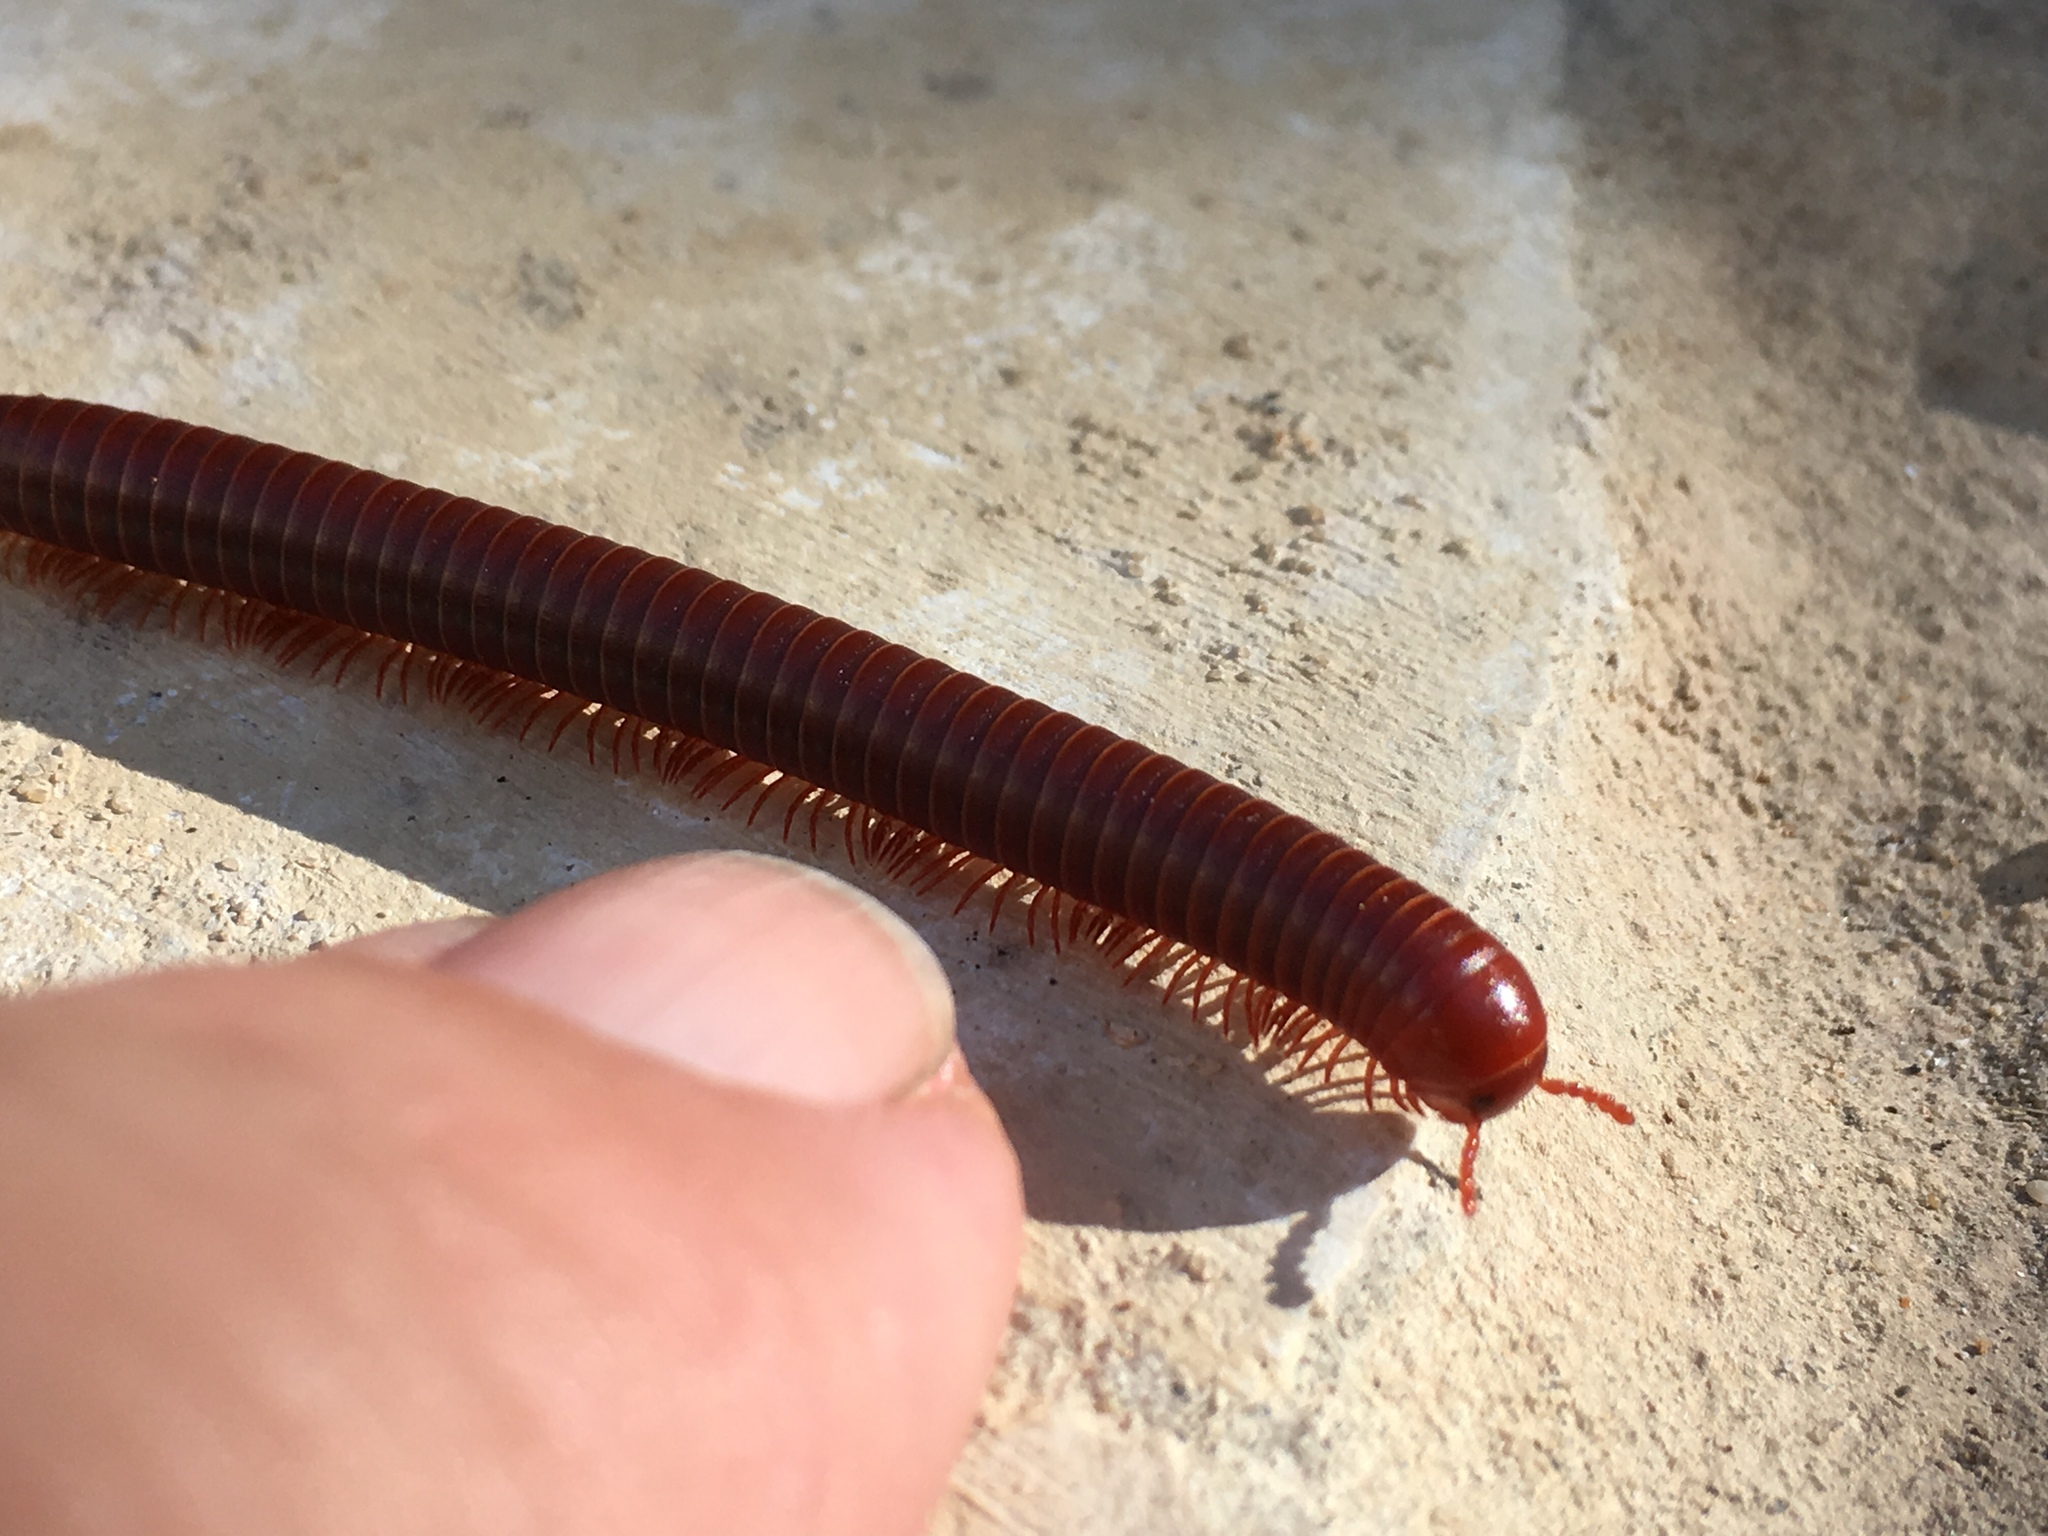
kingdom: Animalia
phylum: Arthropoda
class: Diplopoda
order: Spirobolida
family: Pachybolidae
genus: Trigoniulus
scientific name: Trigoniulus corallinus
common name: Millipede
